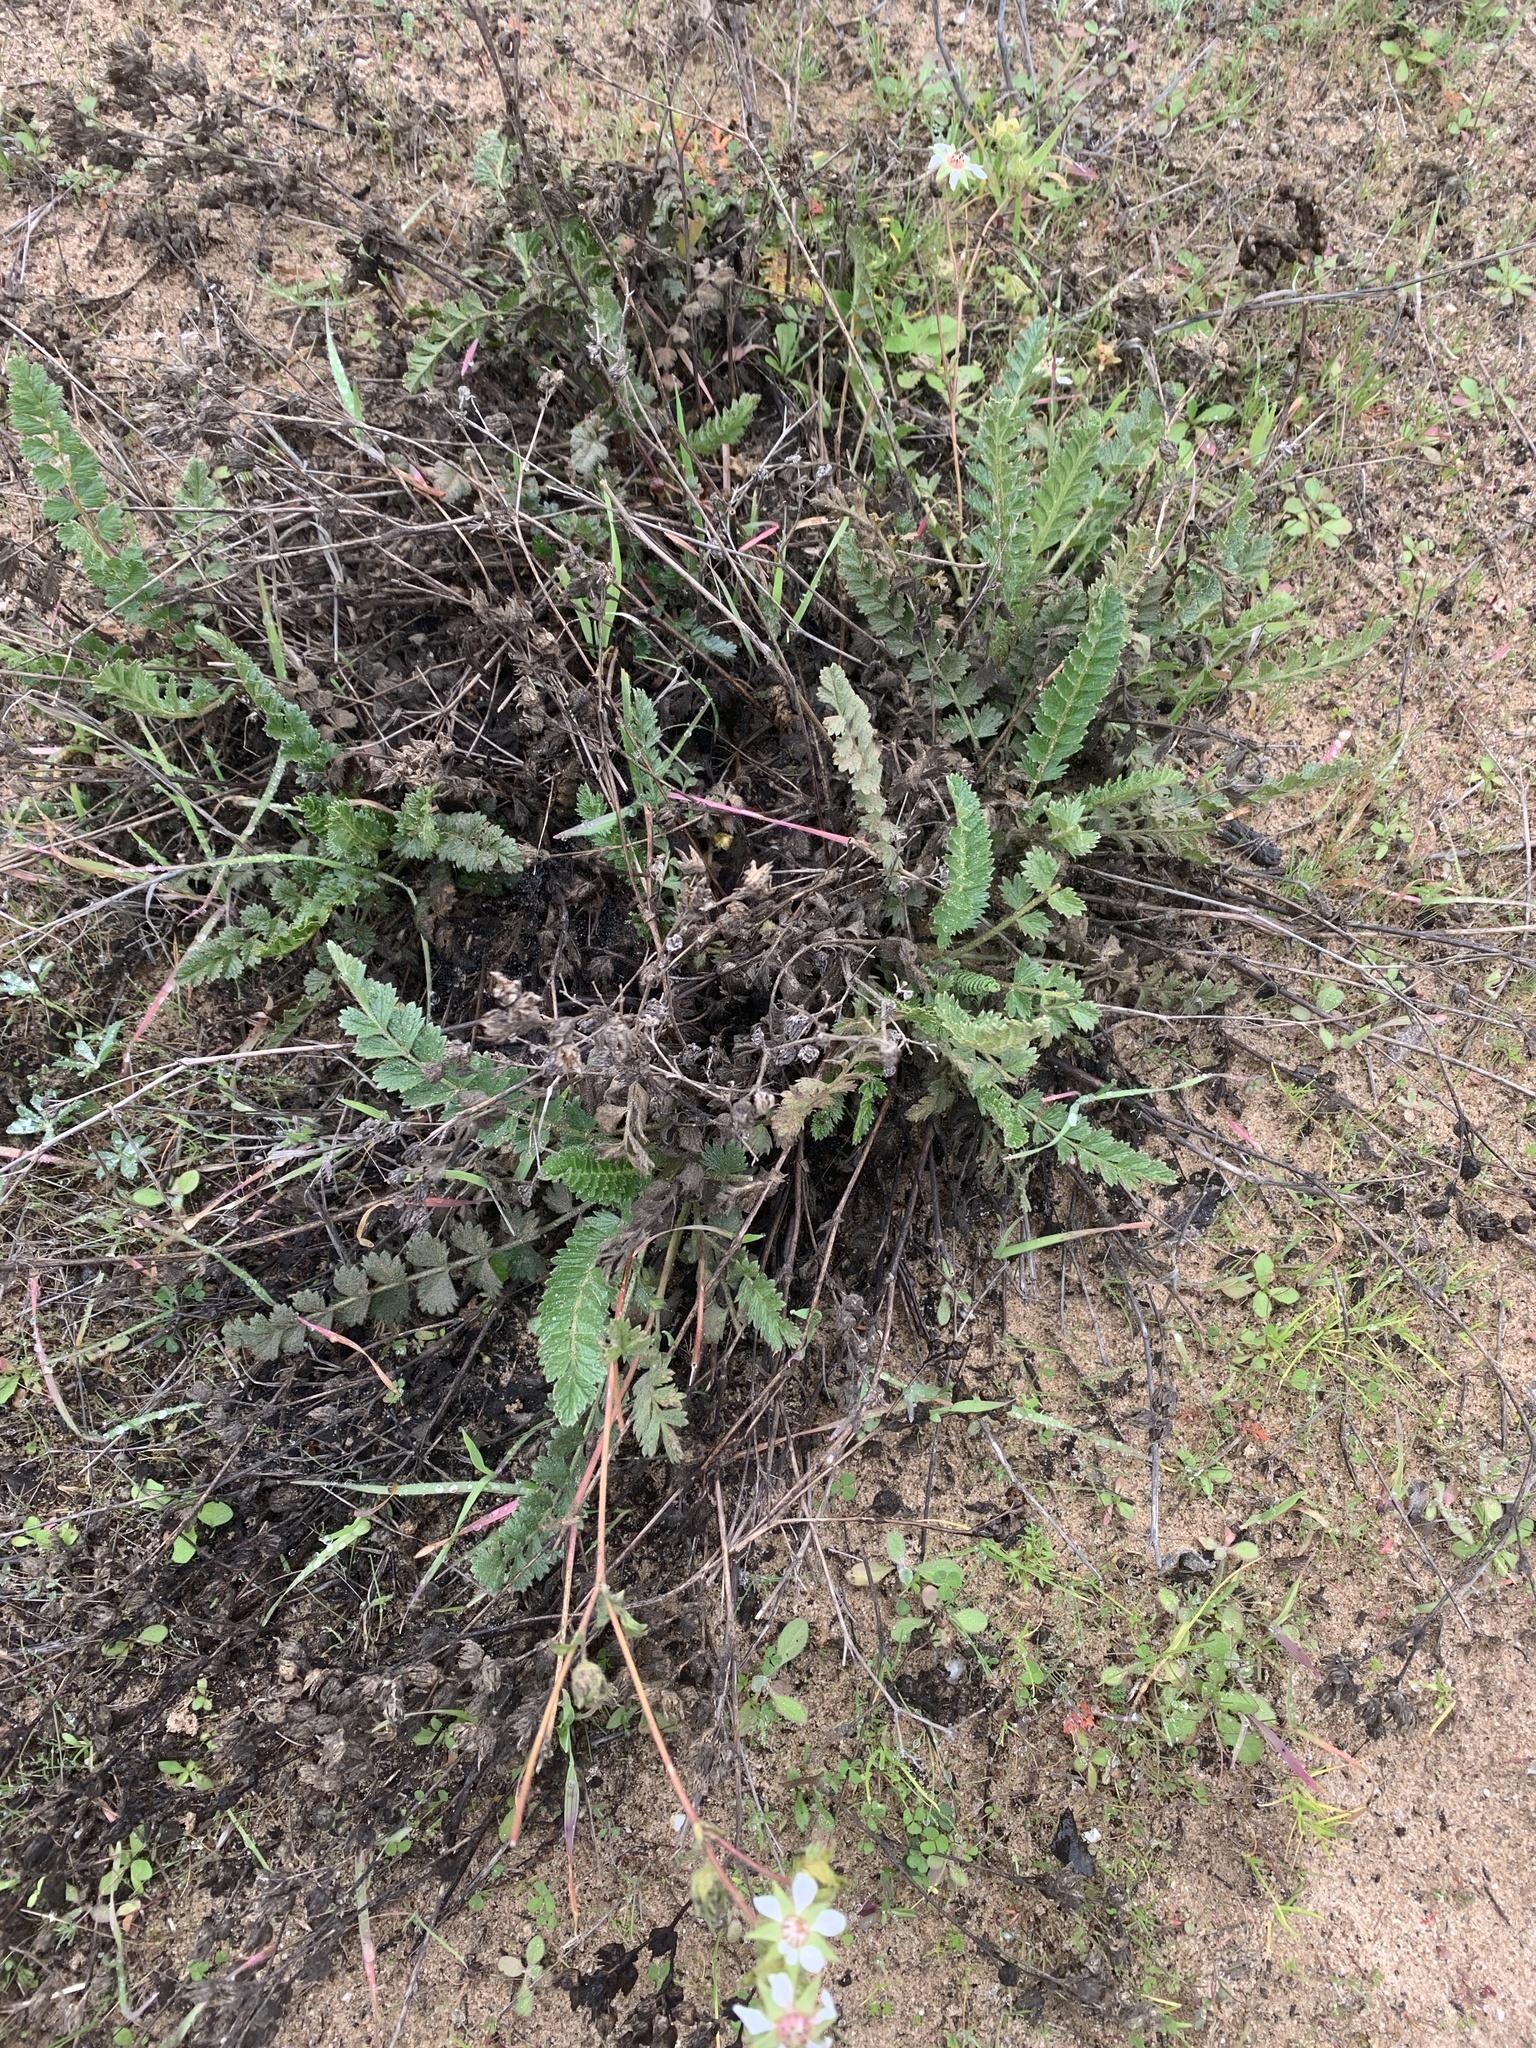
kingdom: Plantae
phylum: Tracheophyta
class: Magnoliopsida
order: Rosales
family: Rosaceae
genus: Potentilla
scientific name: Potentilla
